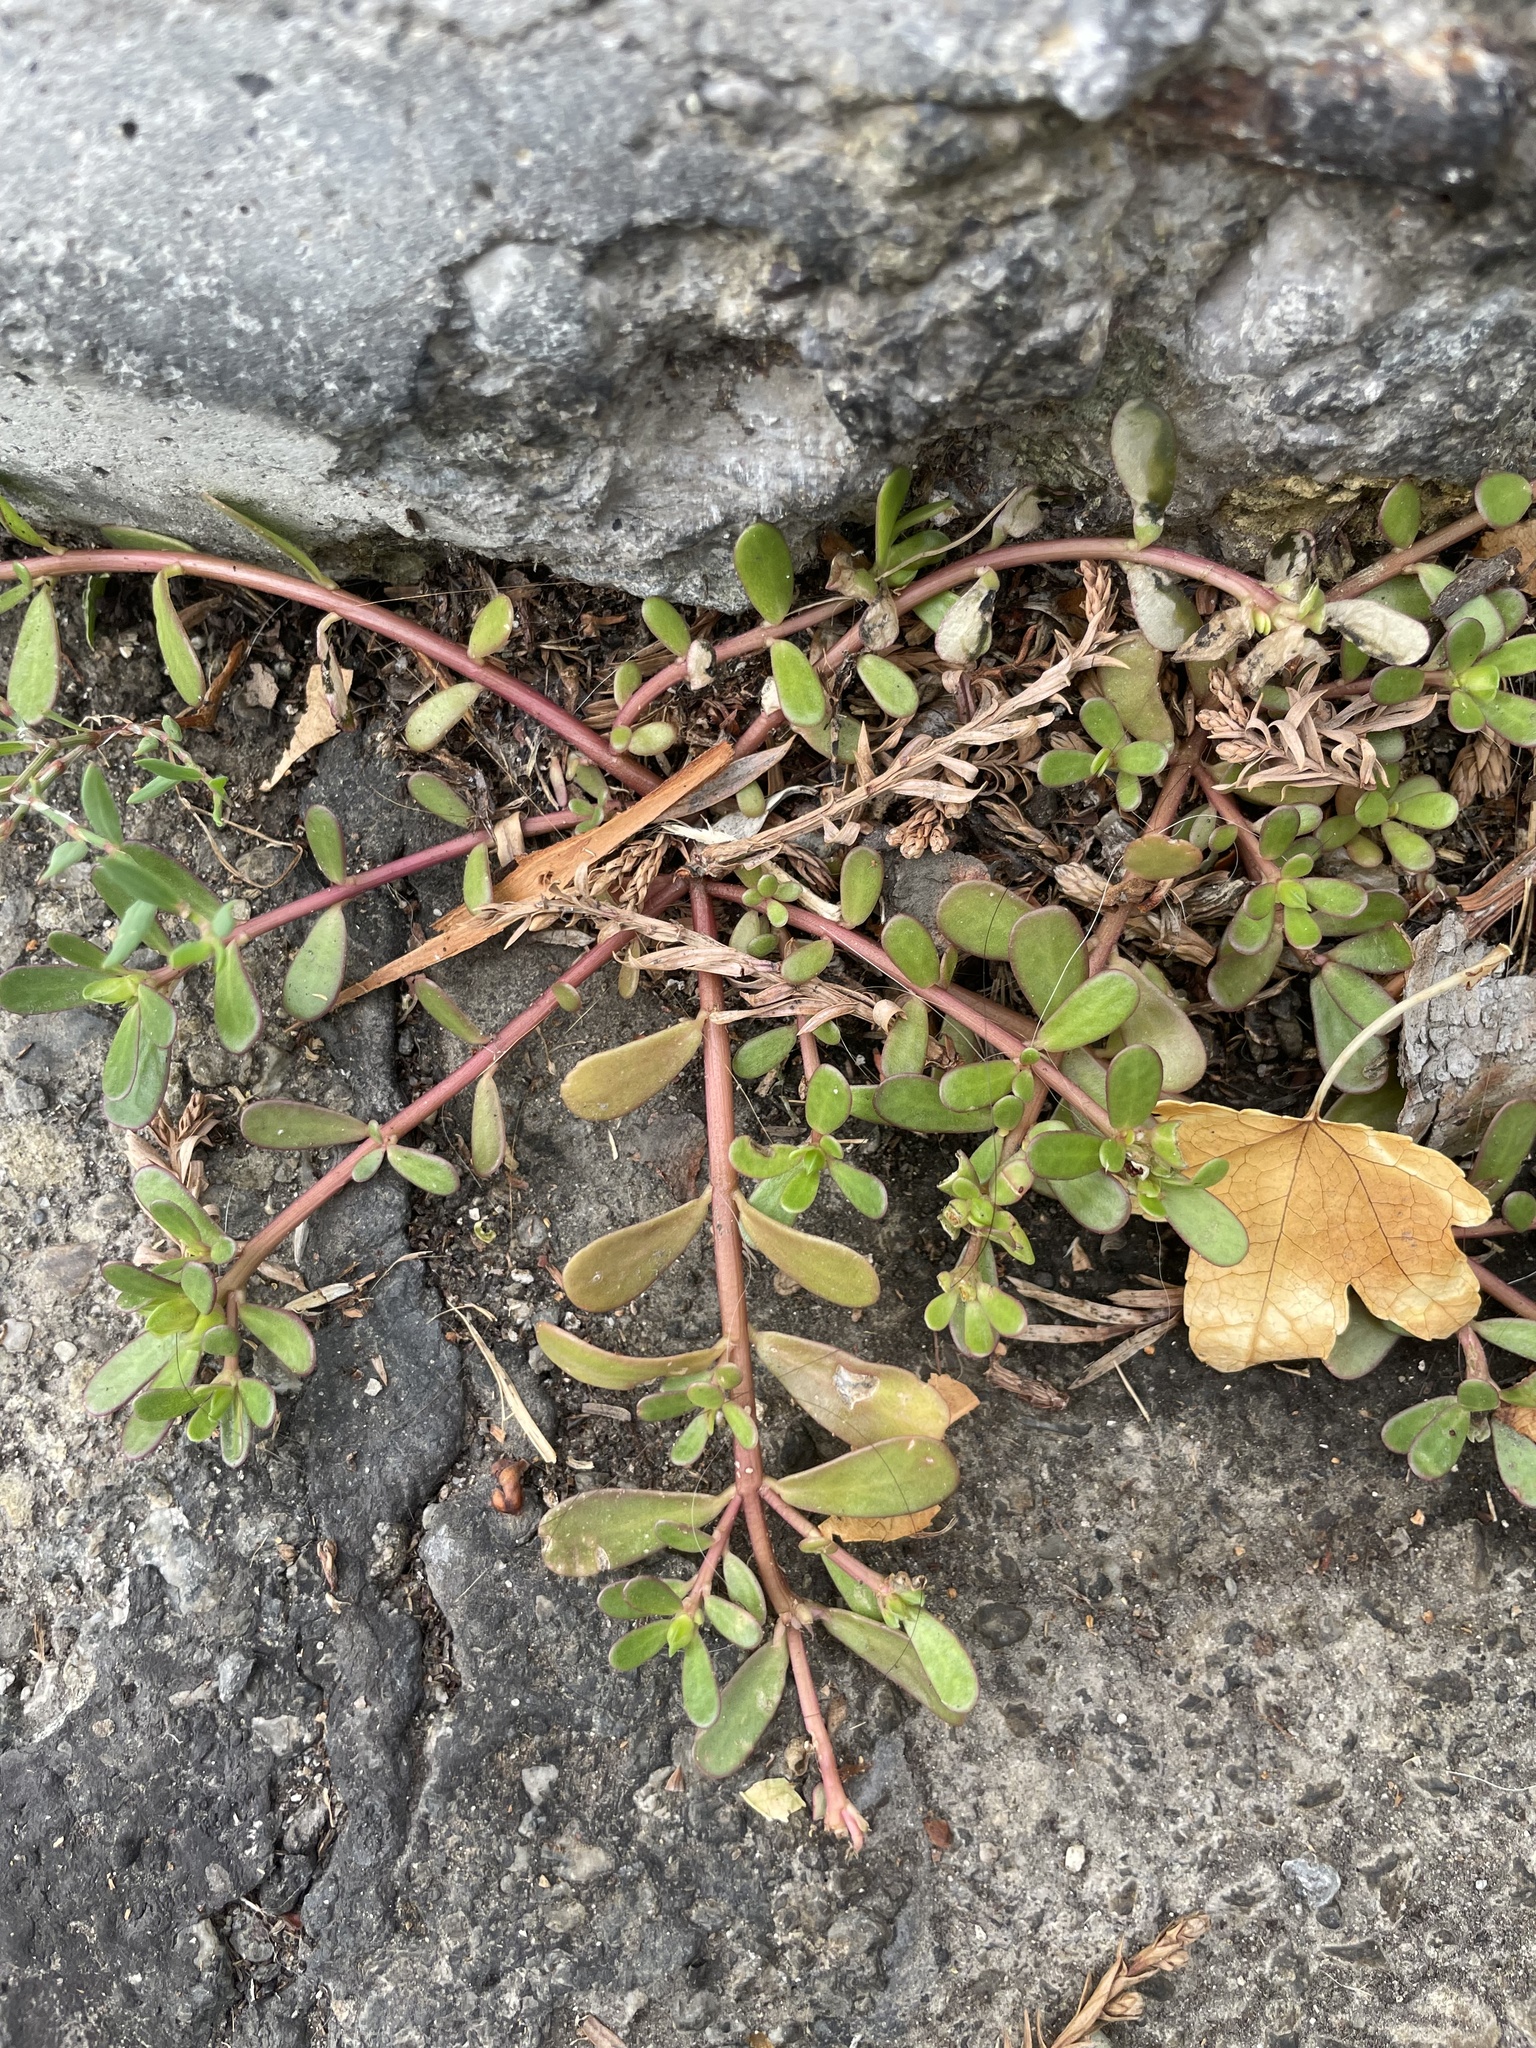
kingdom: Plantae
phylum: Tracheophyta
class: Magnoliopsida
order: Caryophyllales
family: Portulacaceae
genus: Portulaca
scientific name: Portulaca oleracea
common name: Common purslane
